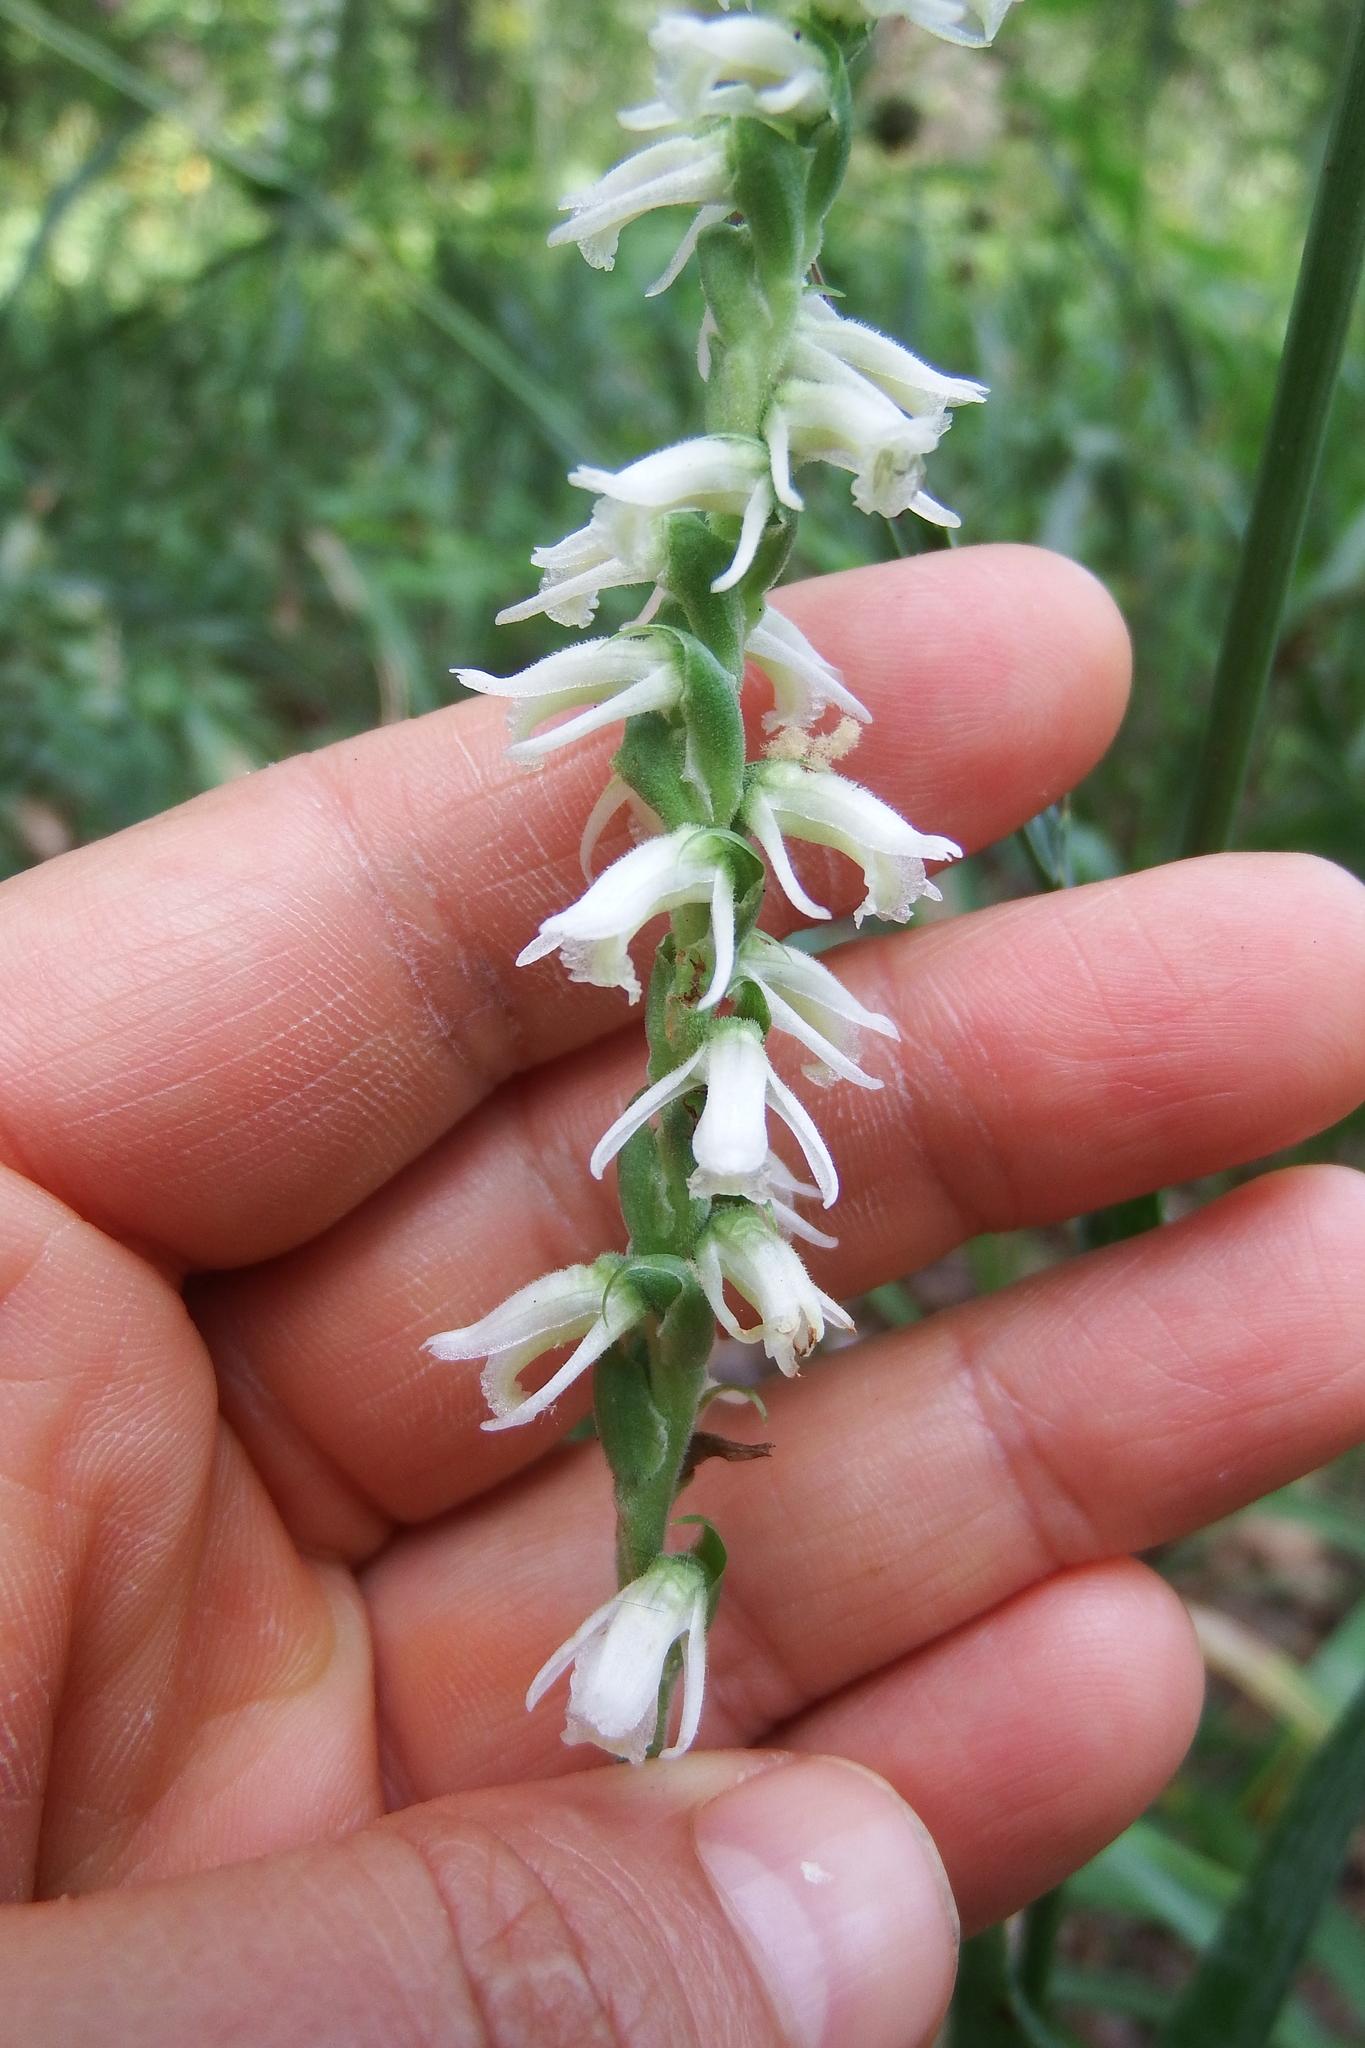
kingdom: Plantae
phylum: Tracheophyta
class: Liliopsida
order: Asparagales
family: Orchidaceae
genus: Spiranthes
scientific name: Spiranthes vernalis
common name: Spring ladies'-tresses
